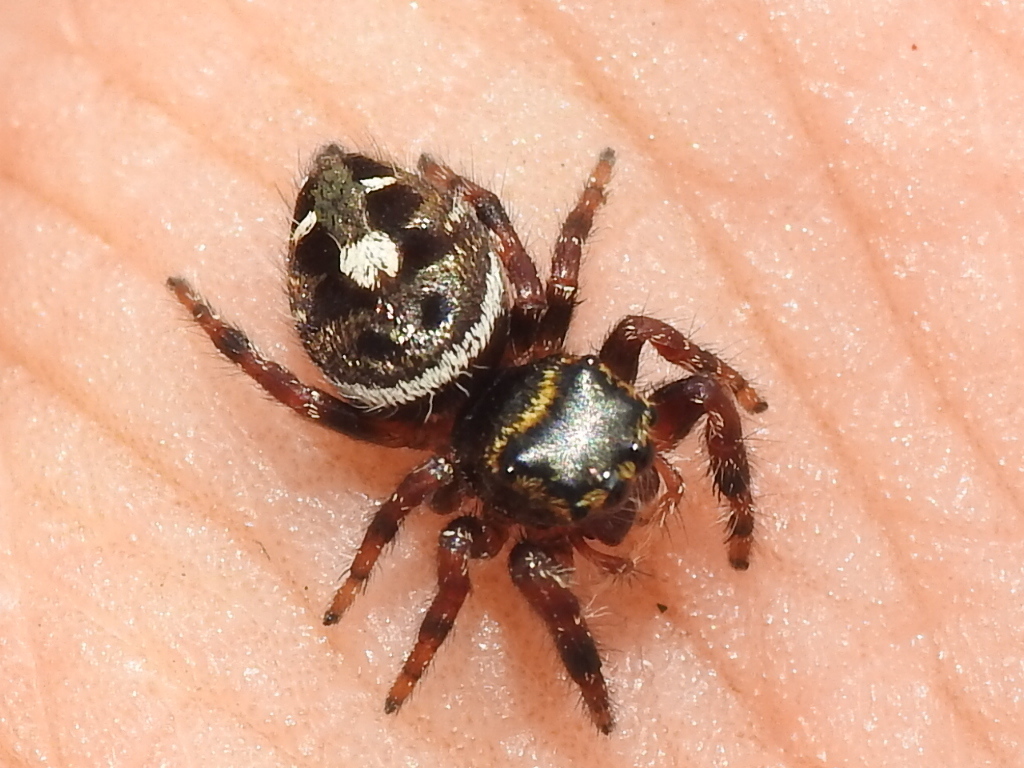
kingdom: Animalia
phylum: Arthropoda
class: Arachnida
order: Araneae
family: Salticidae
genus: Phidippus
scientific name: Phidippus audax
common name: Bold jumper
